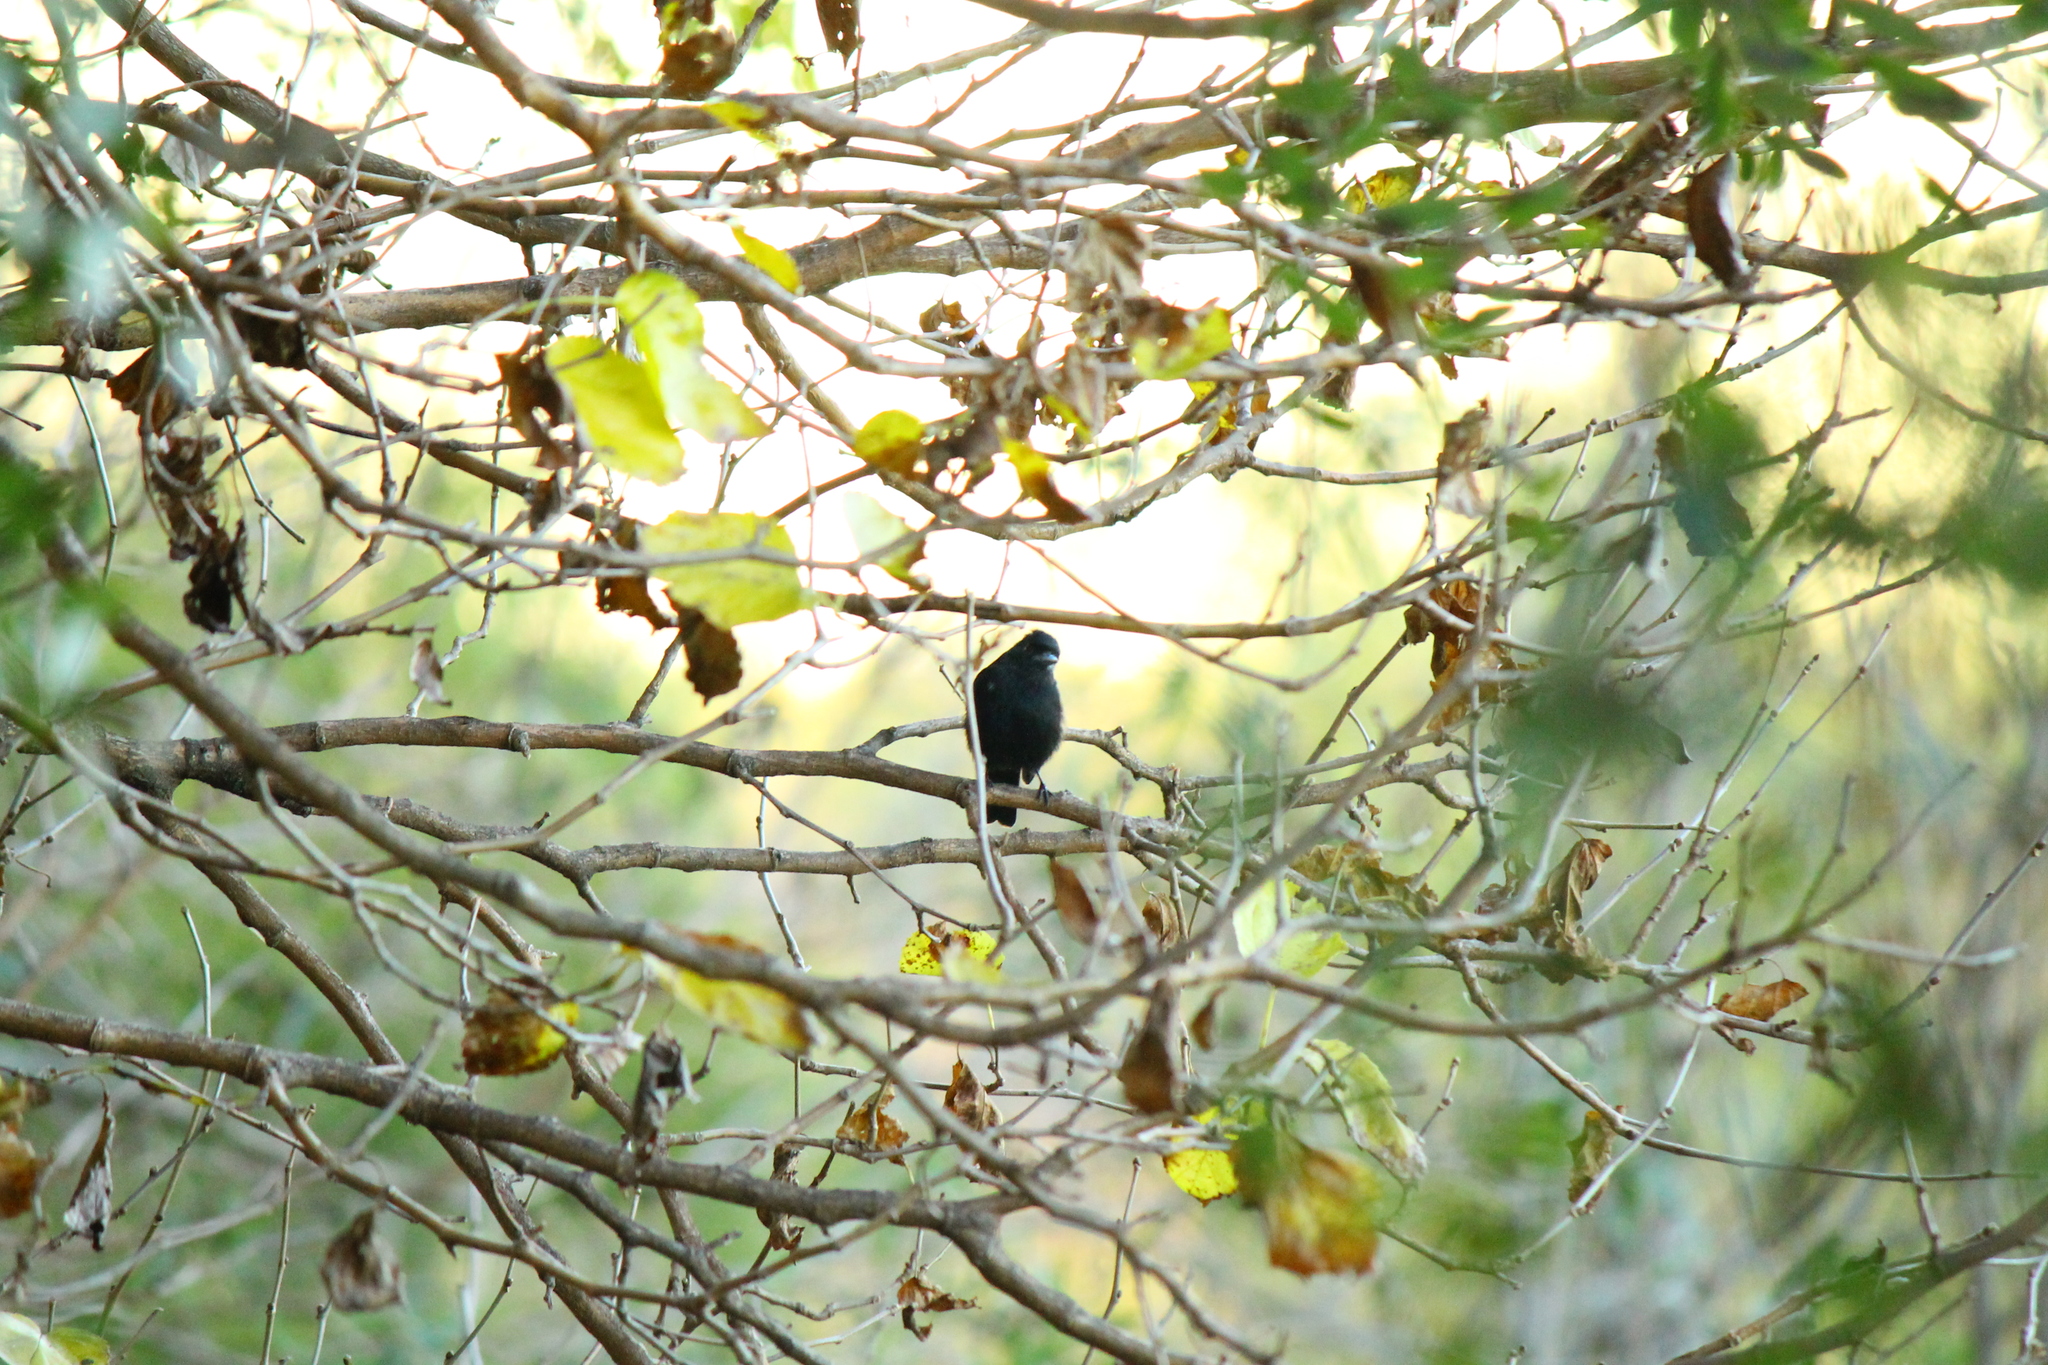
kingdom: Animalia
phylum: Chordata
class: Aves
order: Passeriformes
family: Tyrannidae
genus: Knipolegus
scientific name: Knipolegus cyanirostris
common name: Blue-billed black tyrant
